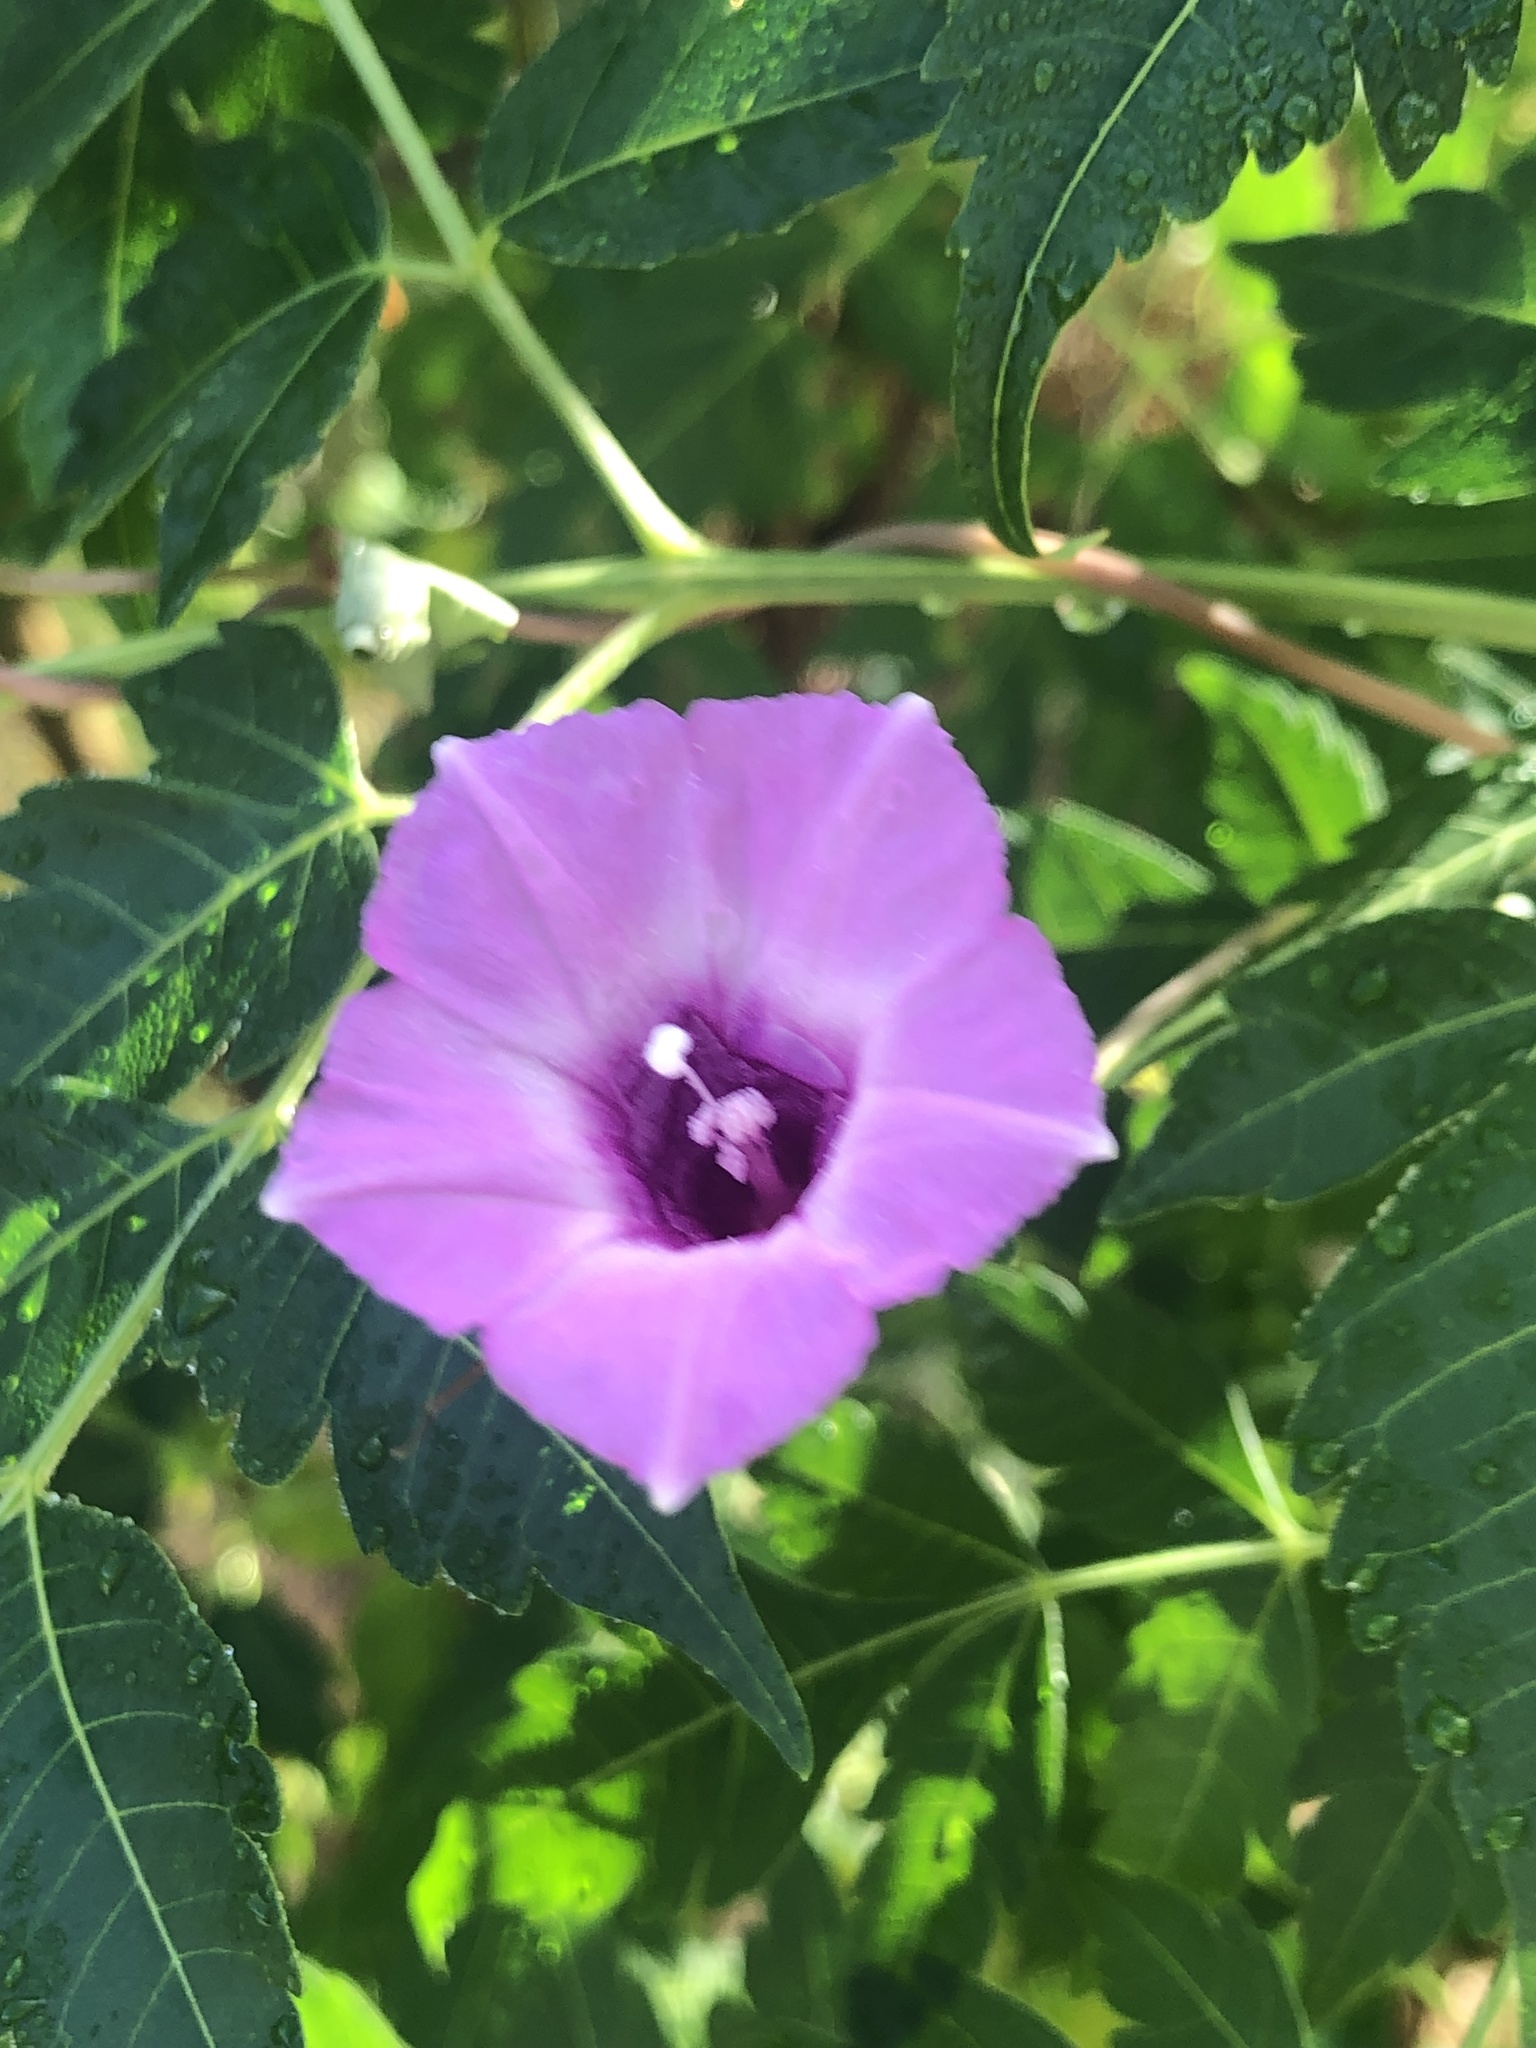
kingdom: Plantae
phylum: Tracheophyta
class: Magnoliopsida
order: Solanales
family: Convolvulaceae
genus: Ipomoea
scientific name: Ipomoea cordatotriloba
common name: Cotton morning glory
